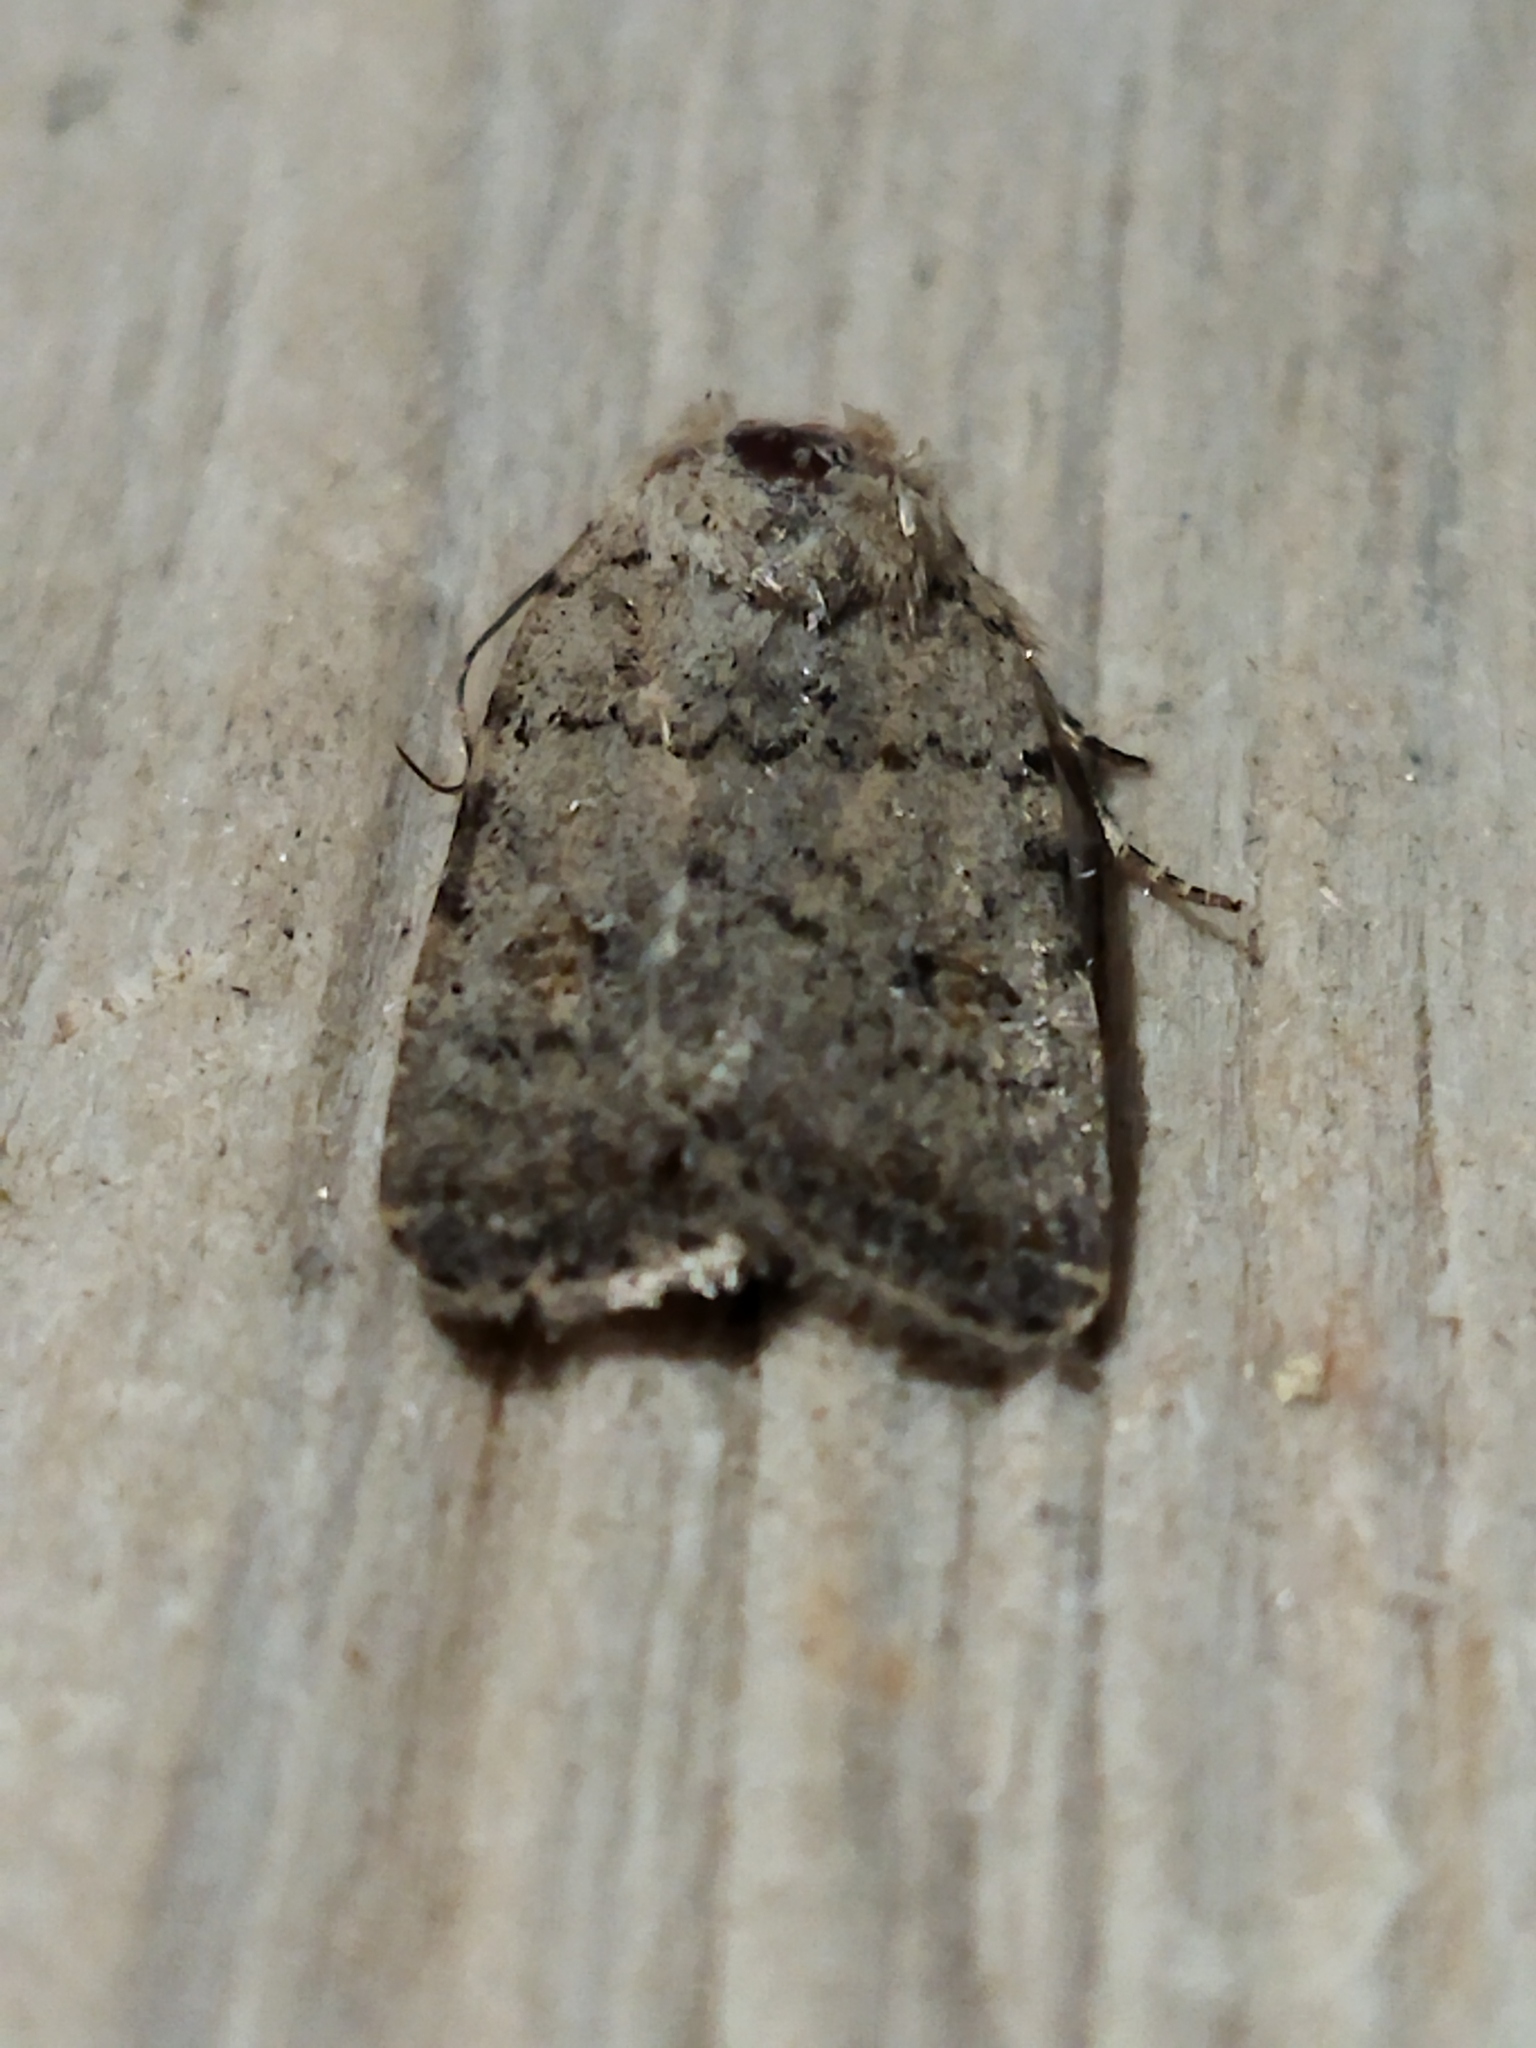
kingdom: Animalia
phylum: Arthropoda
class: Insecta
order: Lepidoptera
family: Noctuidae
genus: Caradrina
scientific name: Caradrina clavipalpis
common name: Pale mottled willow
